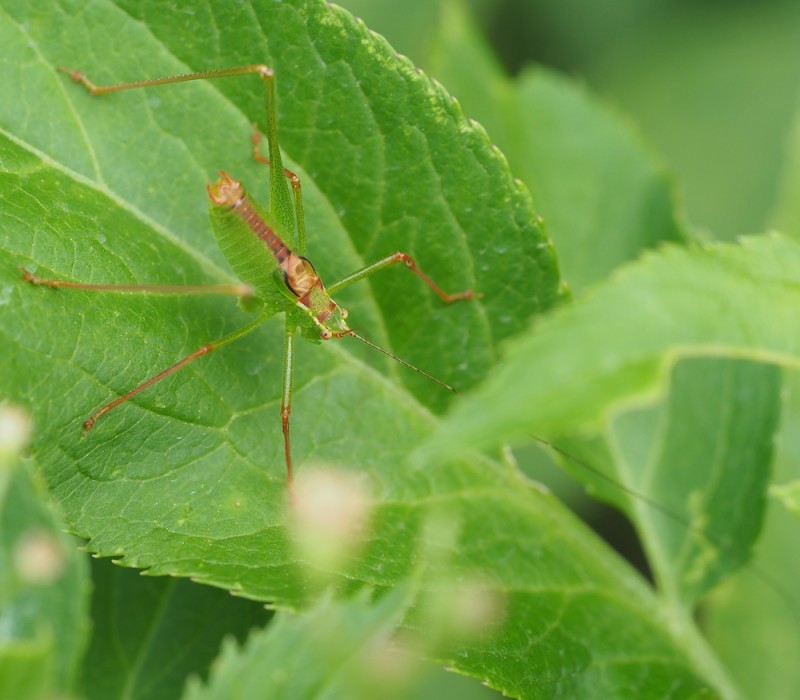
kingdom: Animalia
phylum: Arthropoda
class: Insecta
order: Orthoptera
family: Tettigoniidae
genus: Leptophyes
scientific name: Leptophyes punctatissima
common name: Speckled bush-cricket
